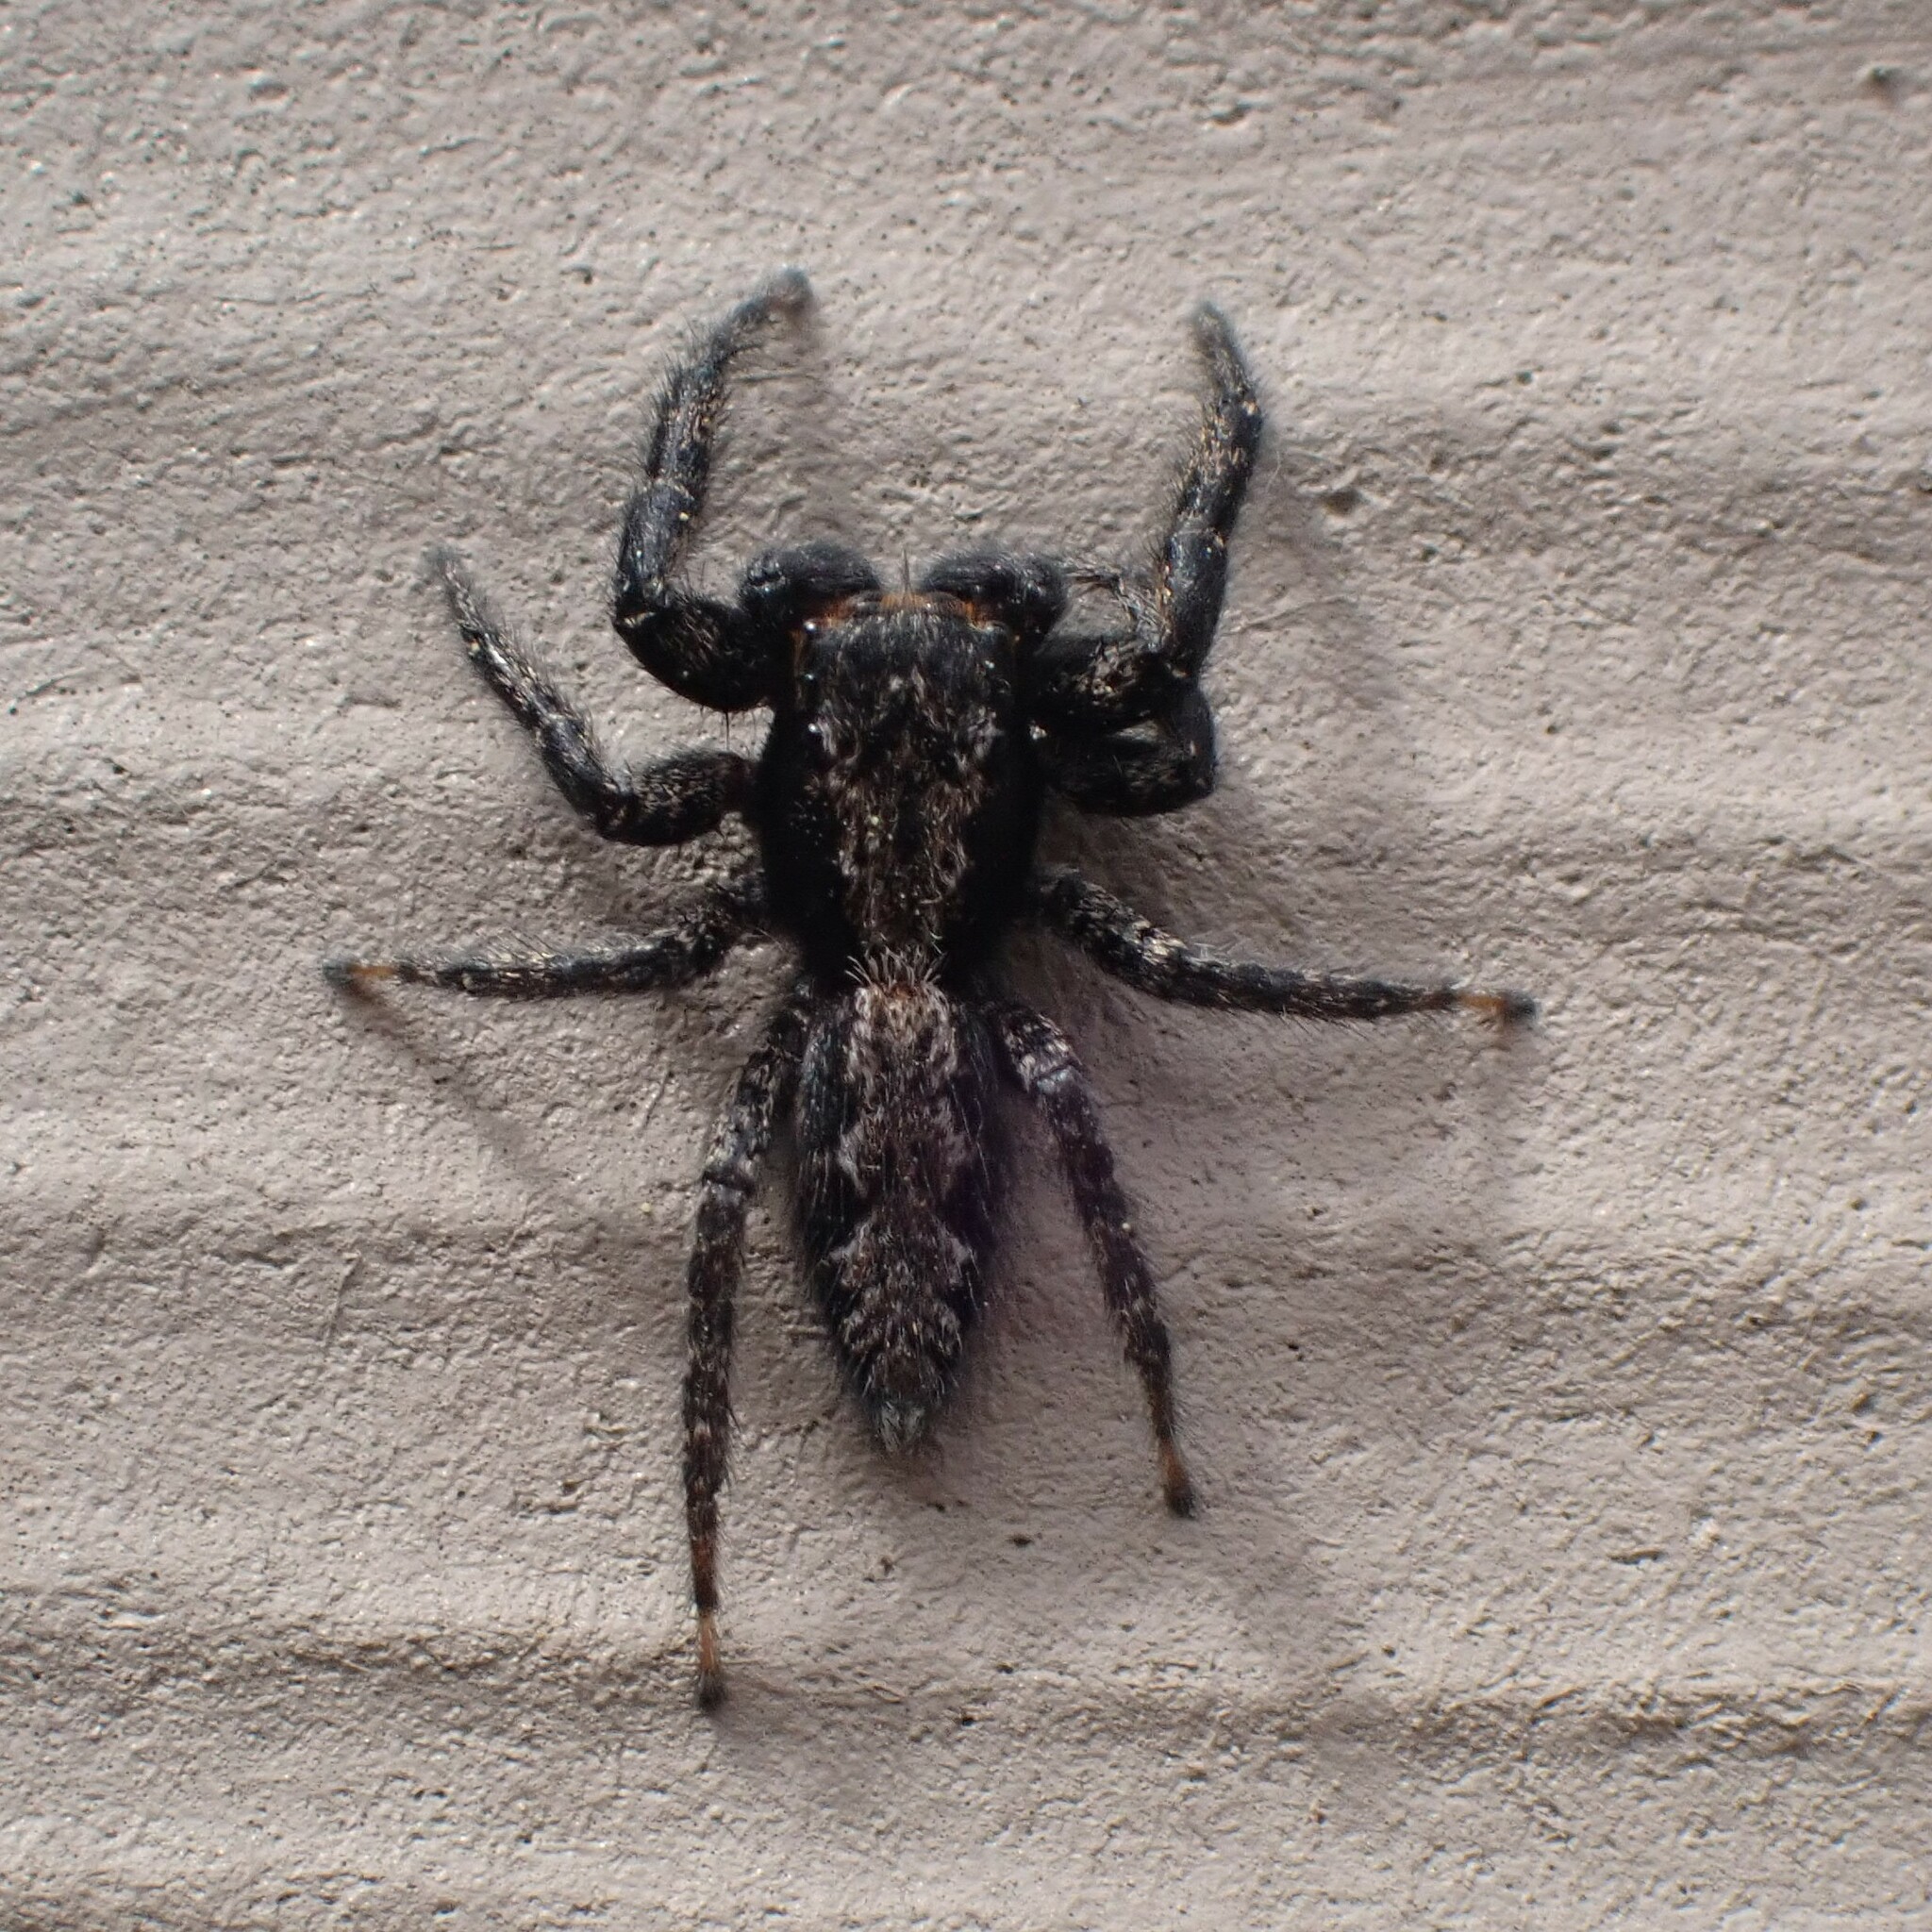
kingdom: Animalia
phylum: Arthropoda
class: Arachnida
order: Araneae
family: Salticidae
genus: Platycryptus
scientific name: Platycryptus californicus
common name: Jumping spiders
